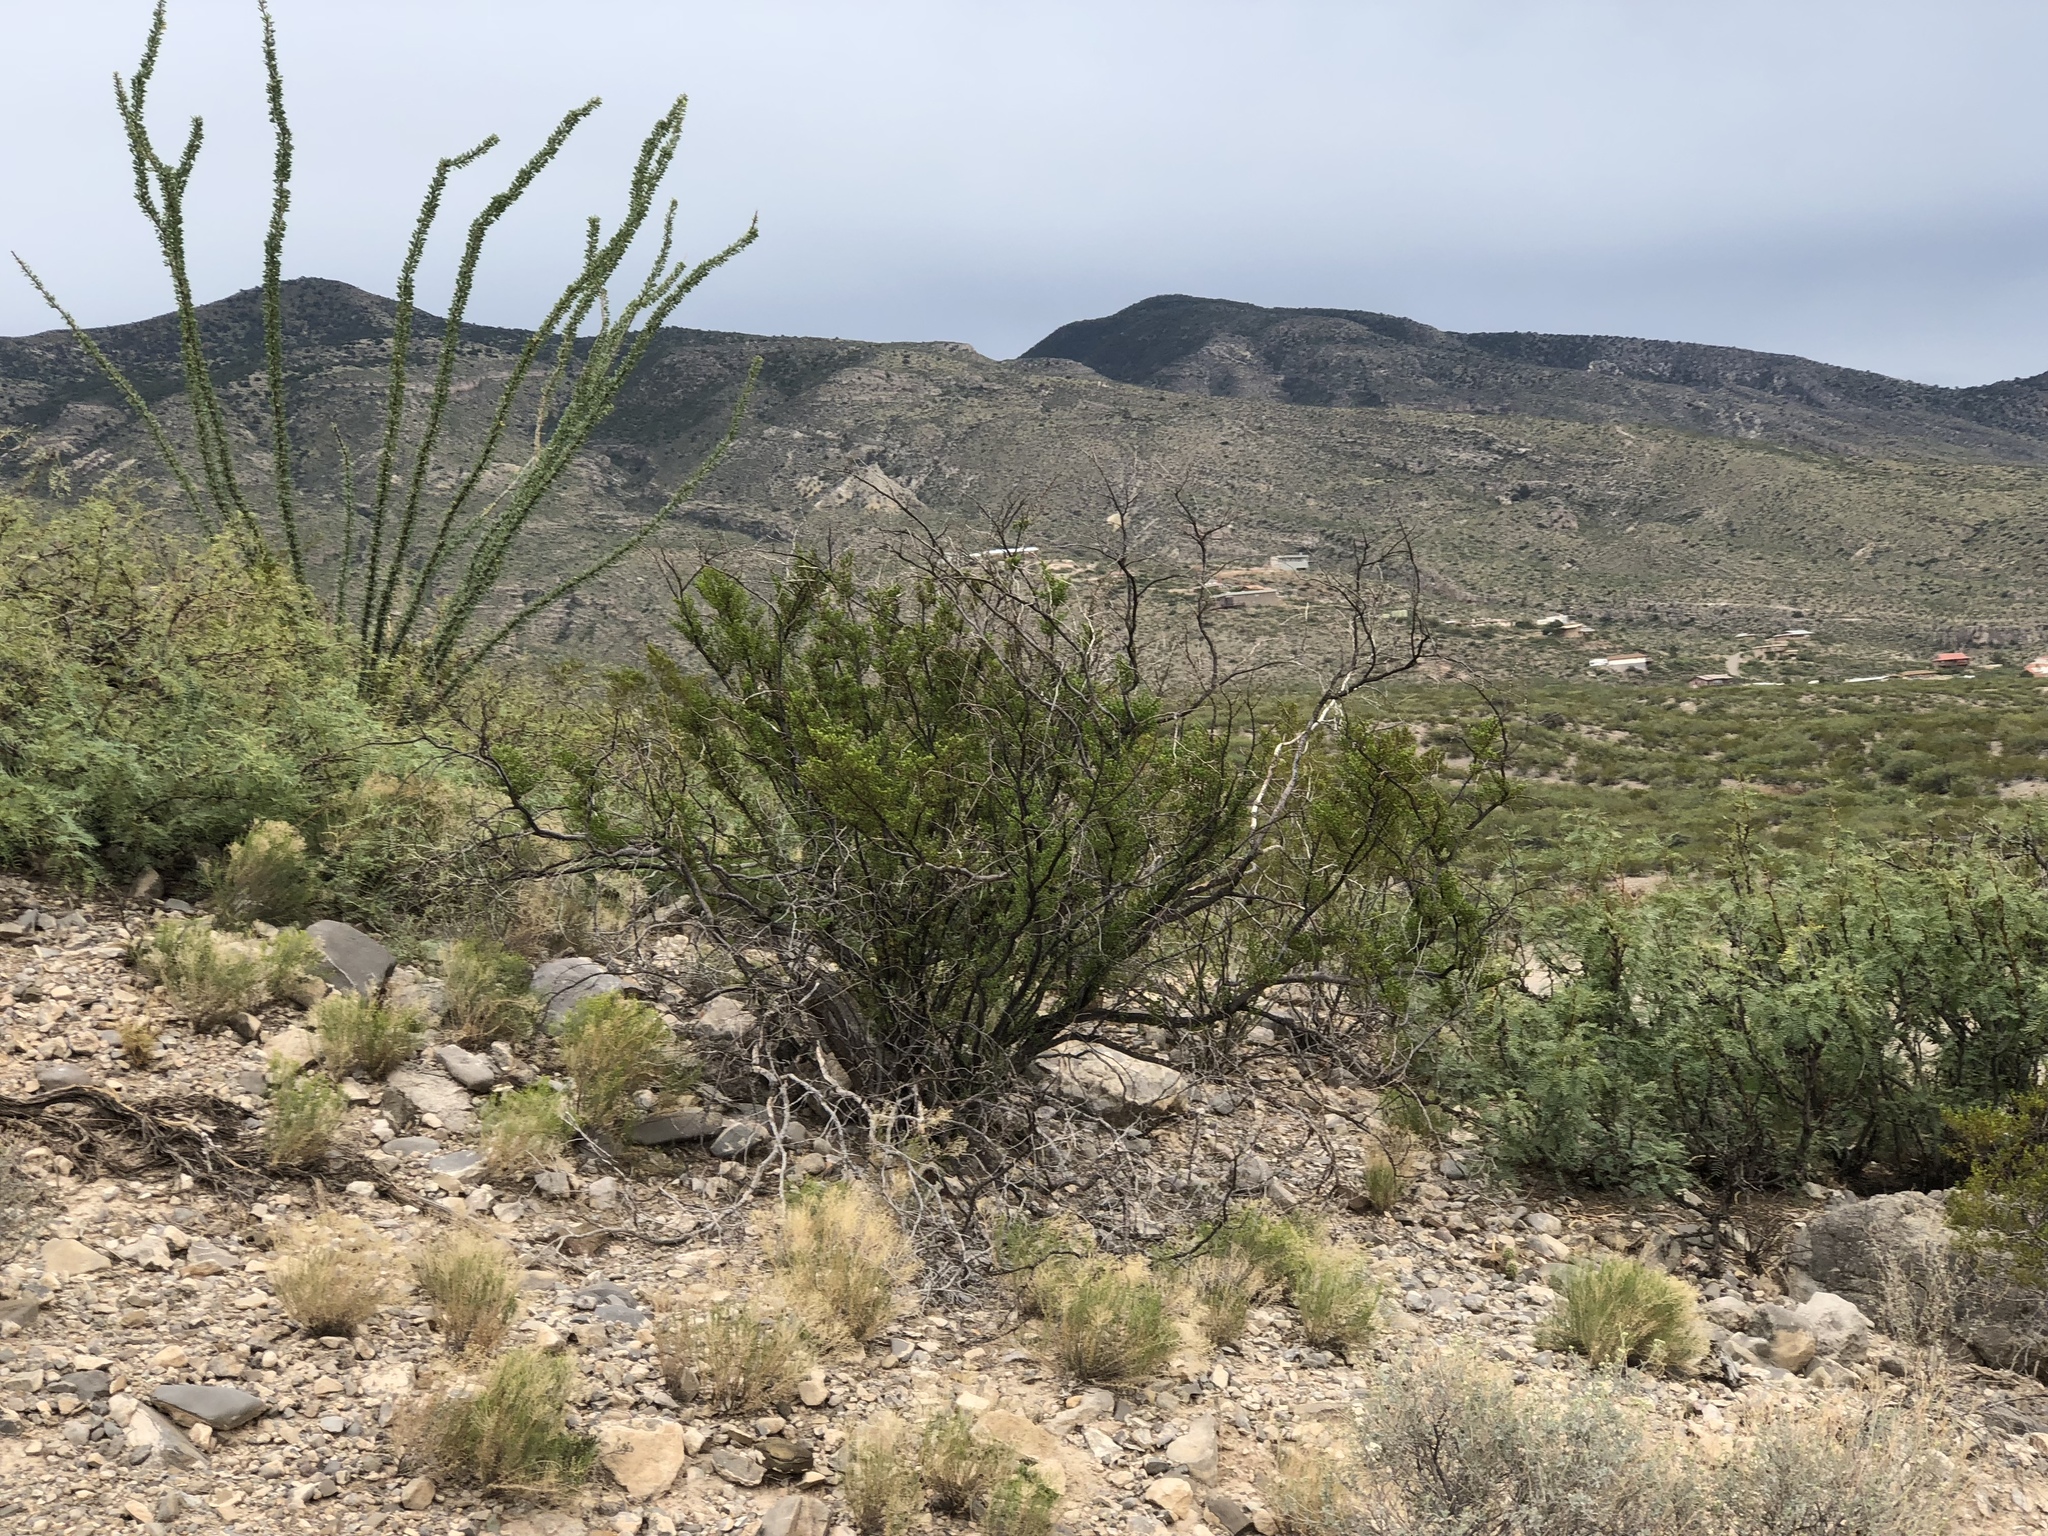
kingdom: Plantae
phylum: Tracheophyta
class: Magnoliopsida
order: Zygophyllales
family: Zygophyllaceae
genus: Larrea
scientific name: Larrea tridentata
